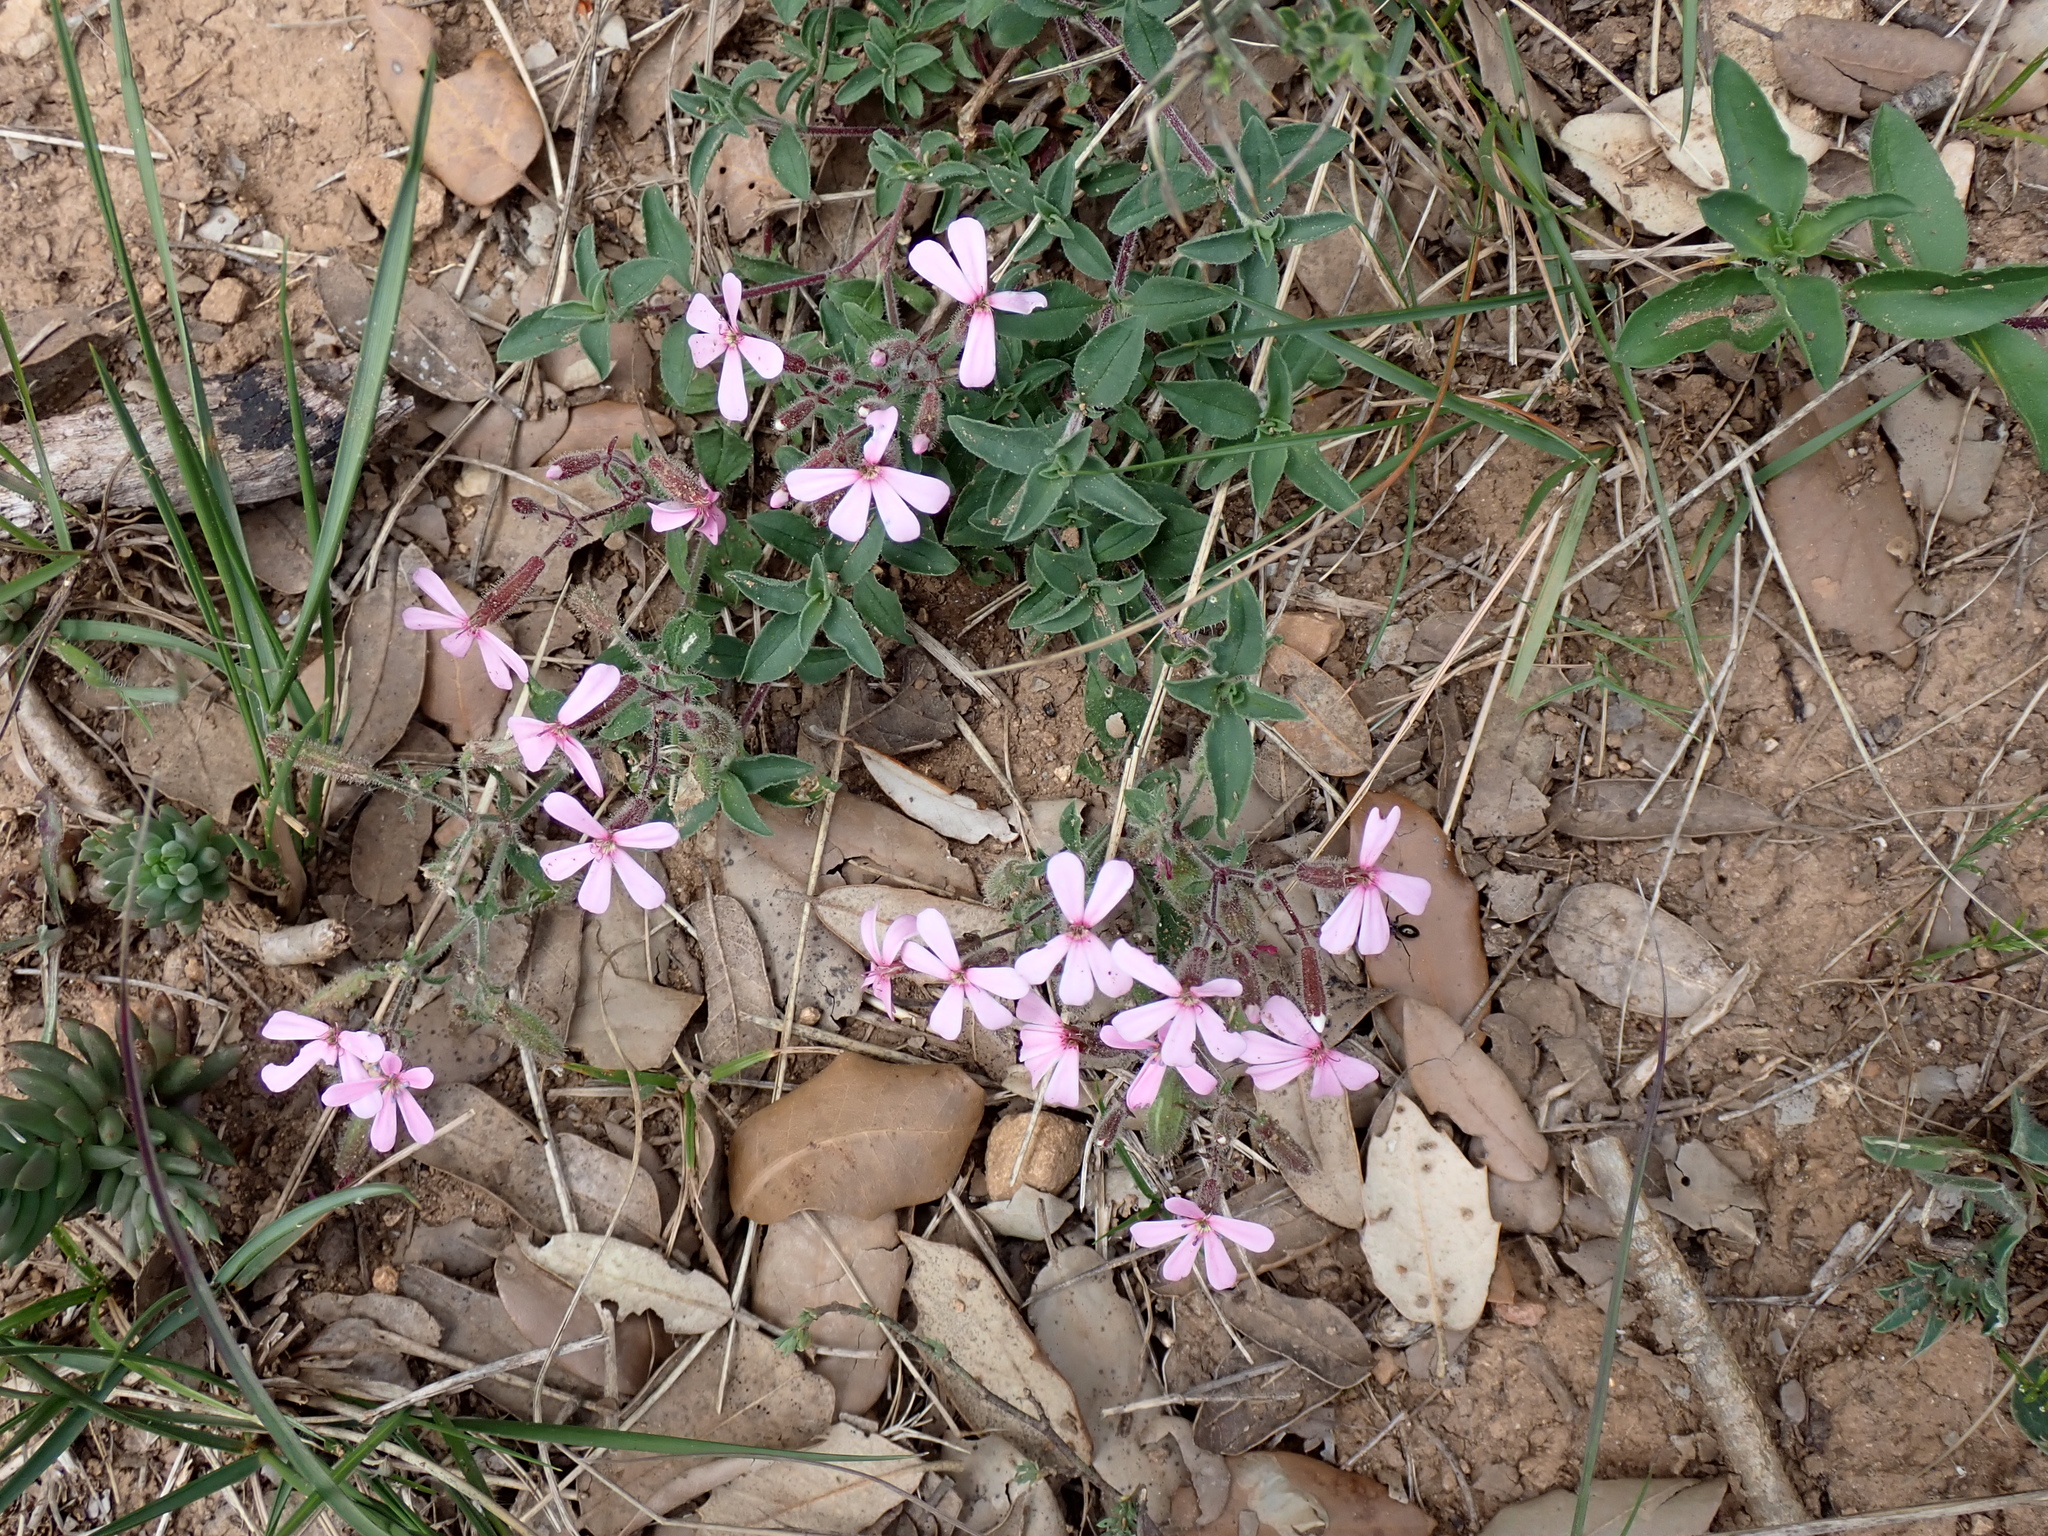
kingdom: Plantae
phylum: Tracheophyta
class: Magnoliopsida
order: Caryophyllales
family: Caryophyllaceae
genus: Saponaria
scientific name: Saponaria ocymoides
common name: Rock soapwort
